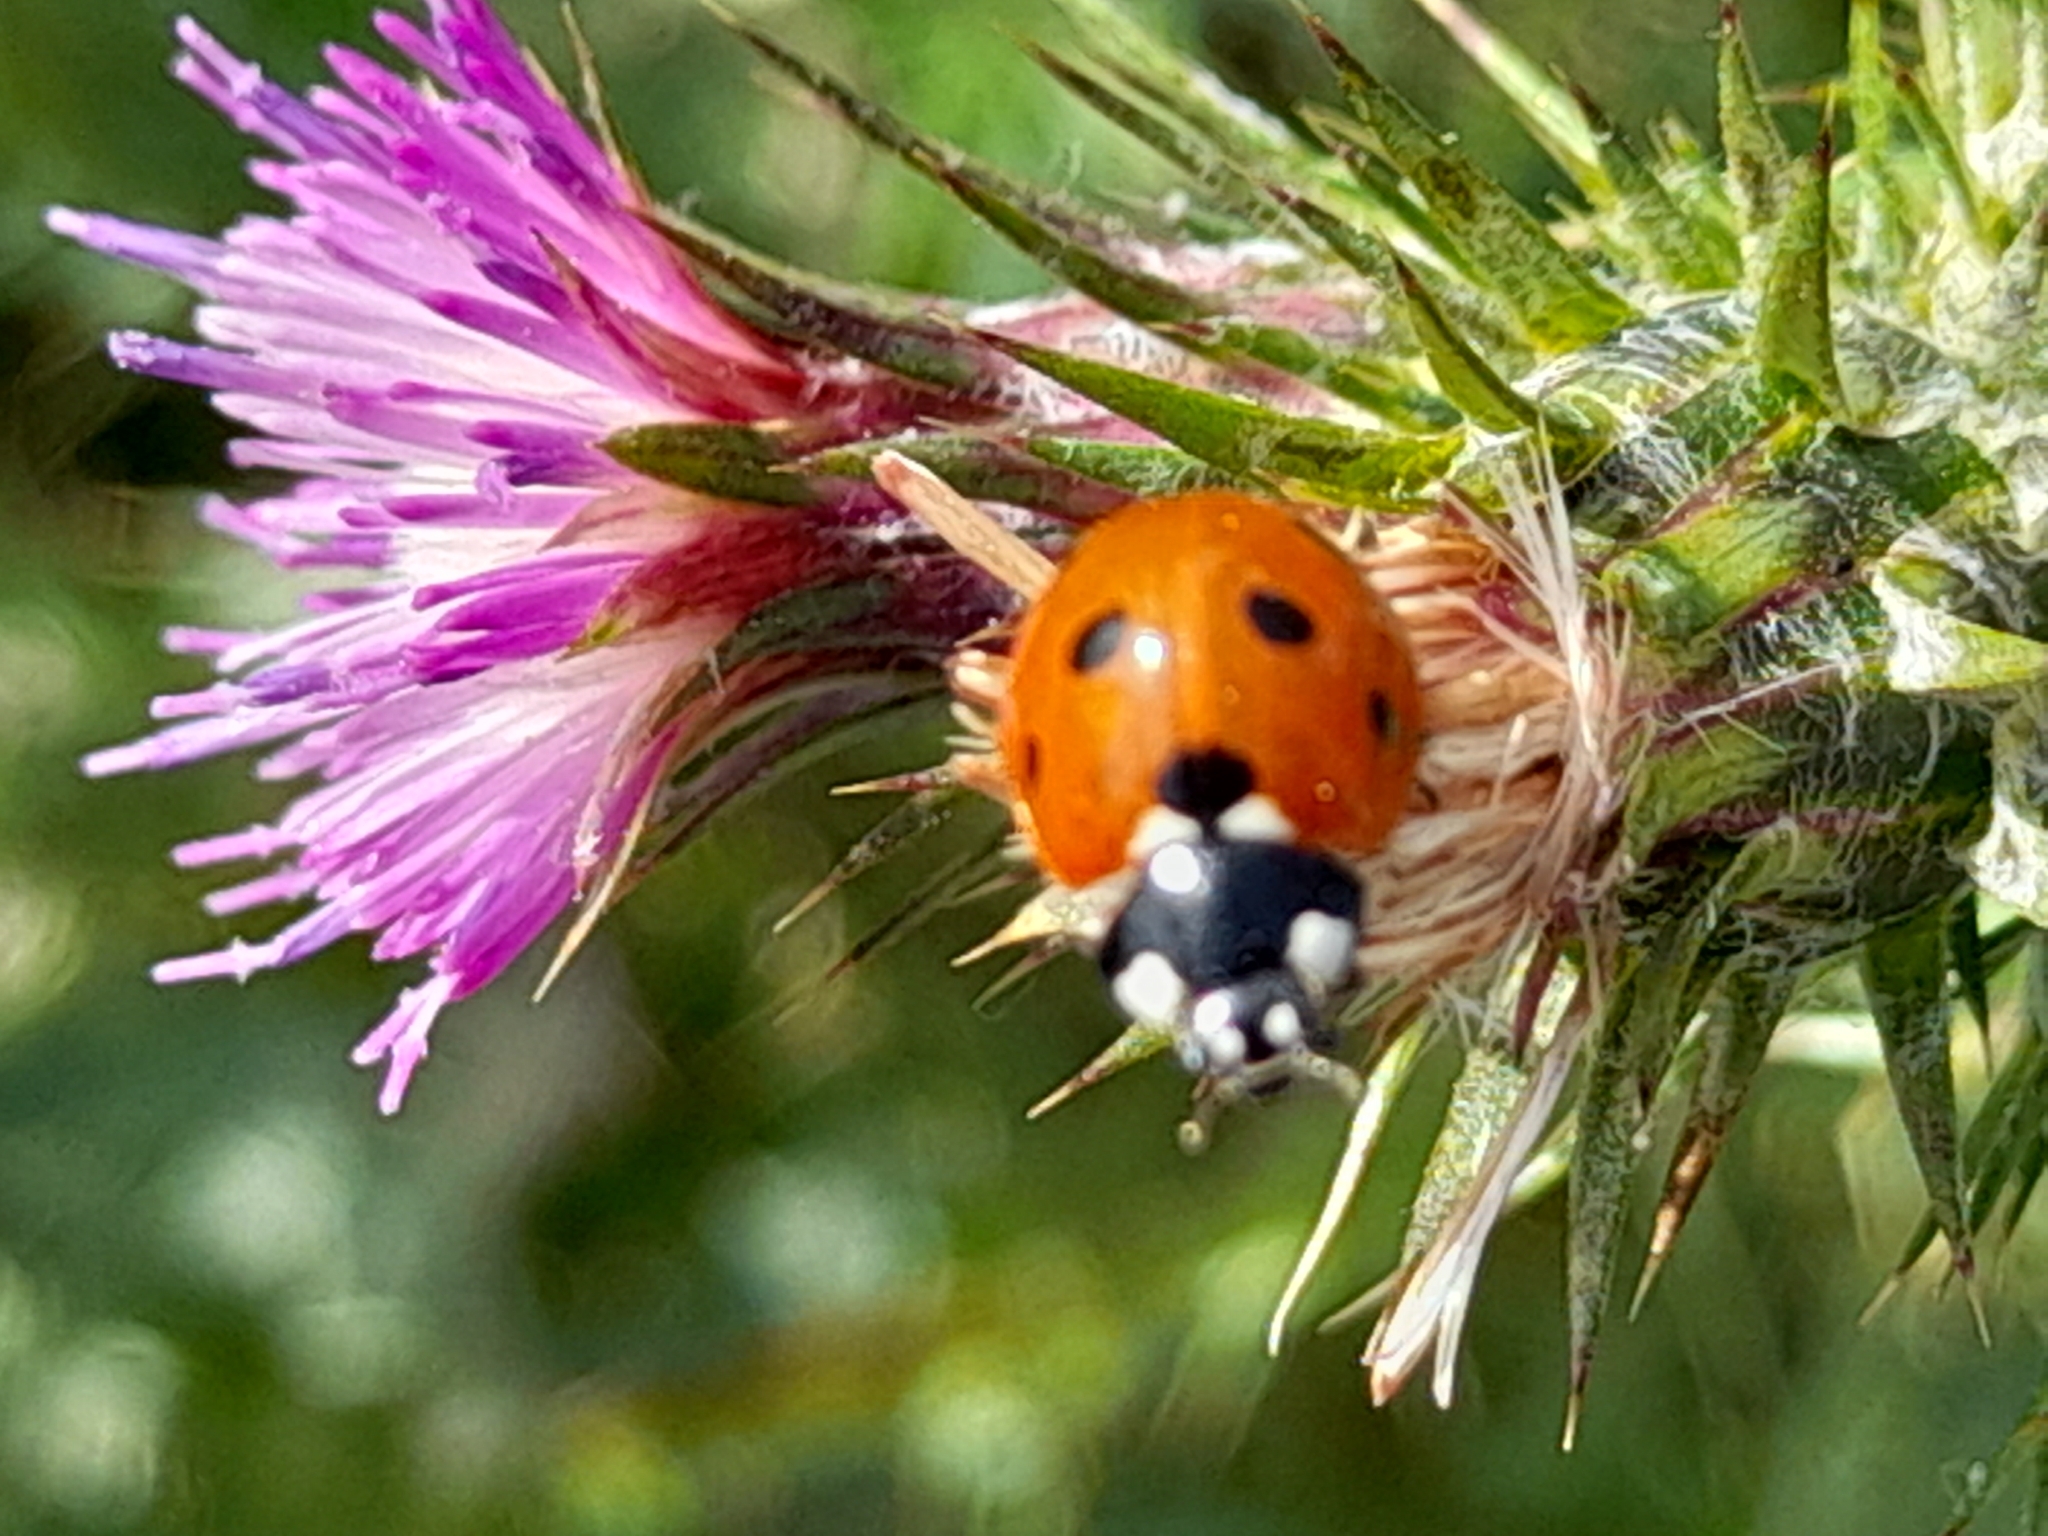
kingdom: Animalia
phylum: Arthropoda
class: Insecta
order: Coleoptera
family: Coccinellidae
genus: Coccinella
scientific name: Coccinella septempunctata
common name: Sevenspotted lady beetle
